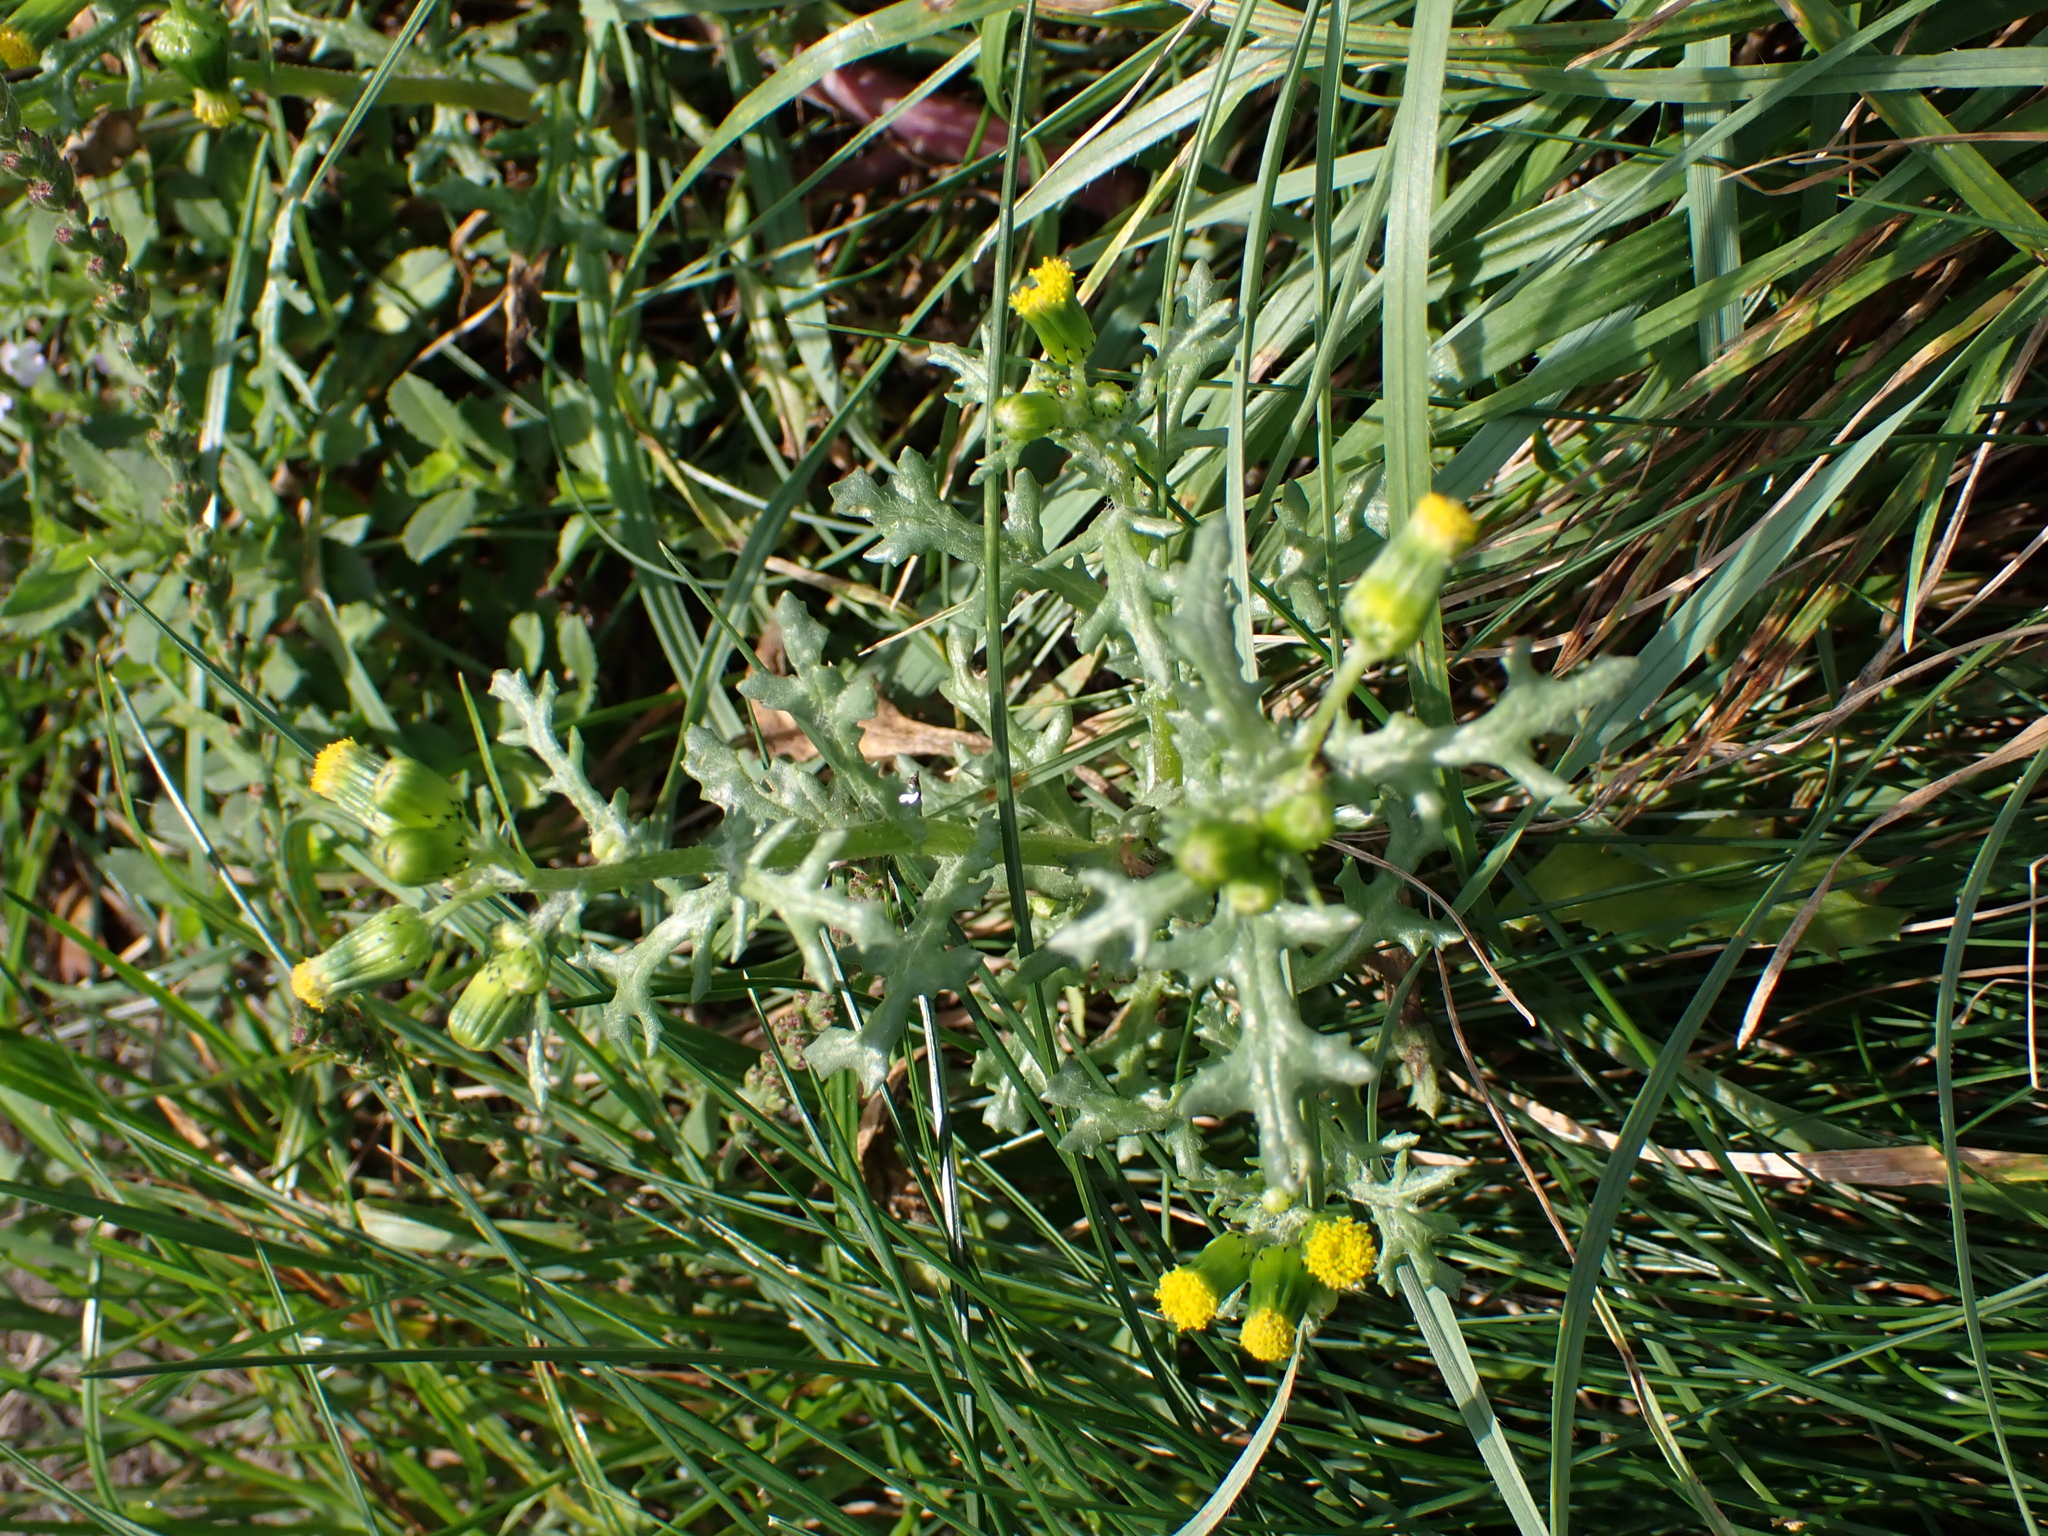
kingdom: Plantae
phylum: Tracheophyta
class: Magnoliopsida
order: Asterales
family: Asteraceae
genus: Senecio
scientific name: Senecio vulgaris
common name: Old-man-in-the-spring
